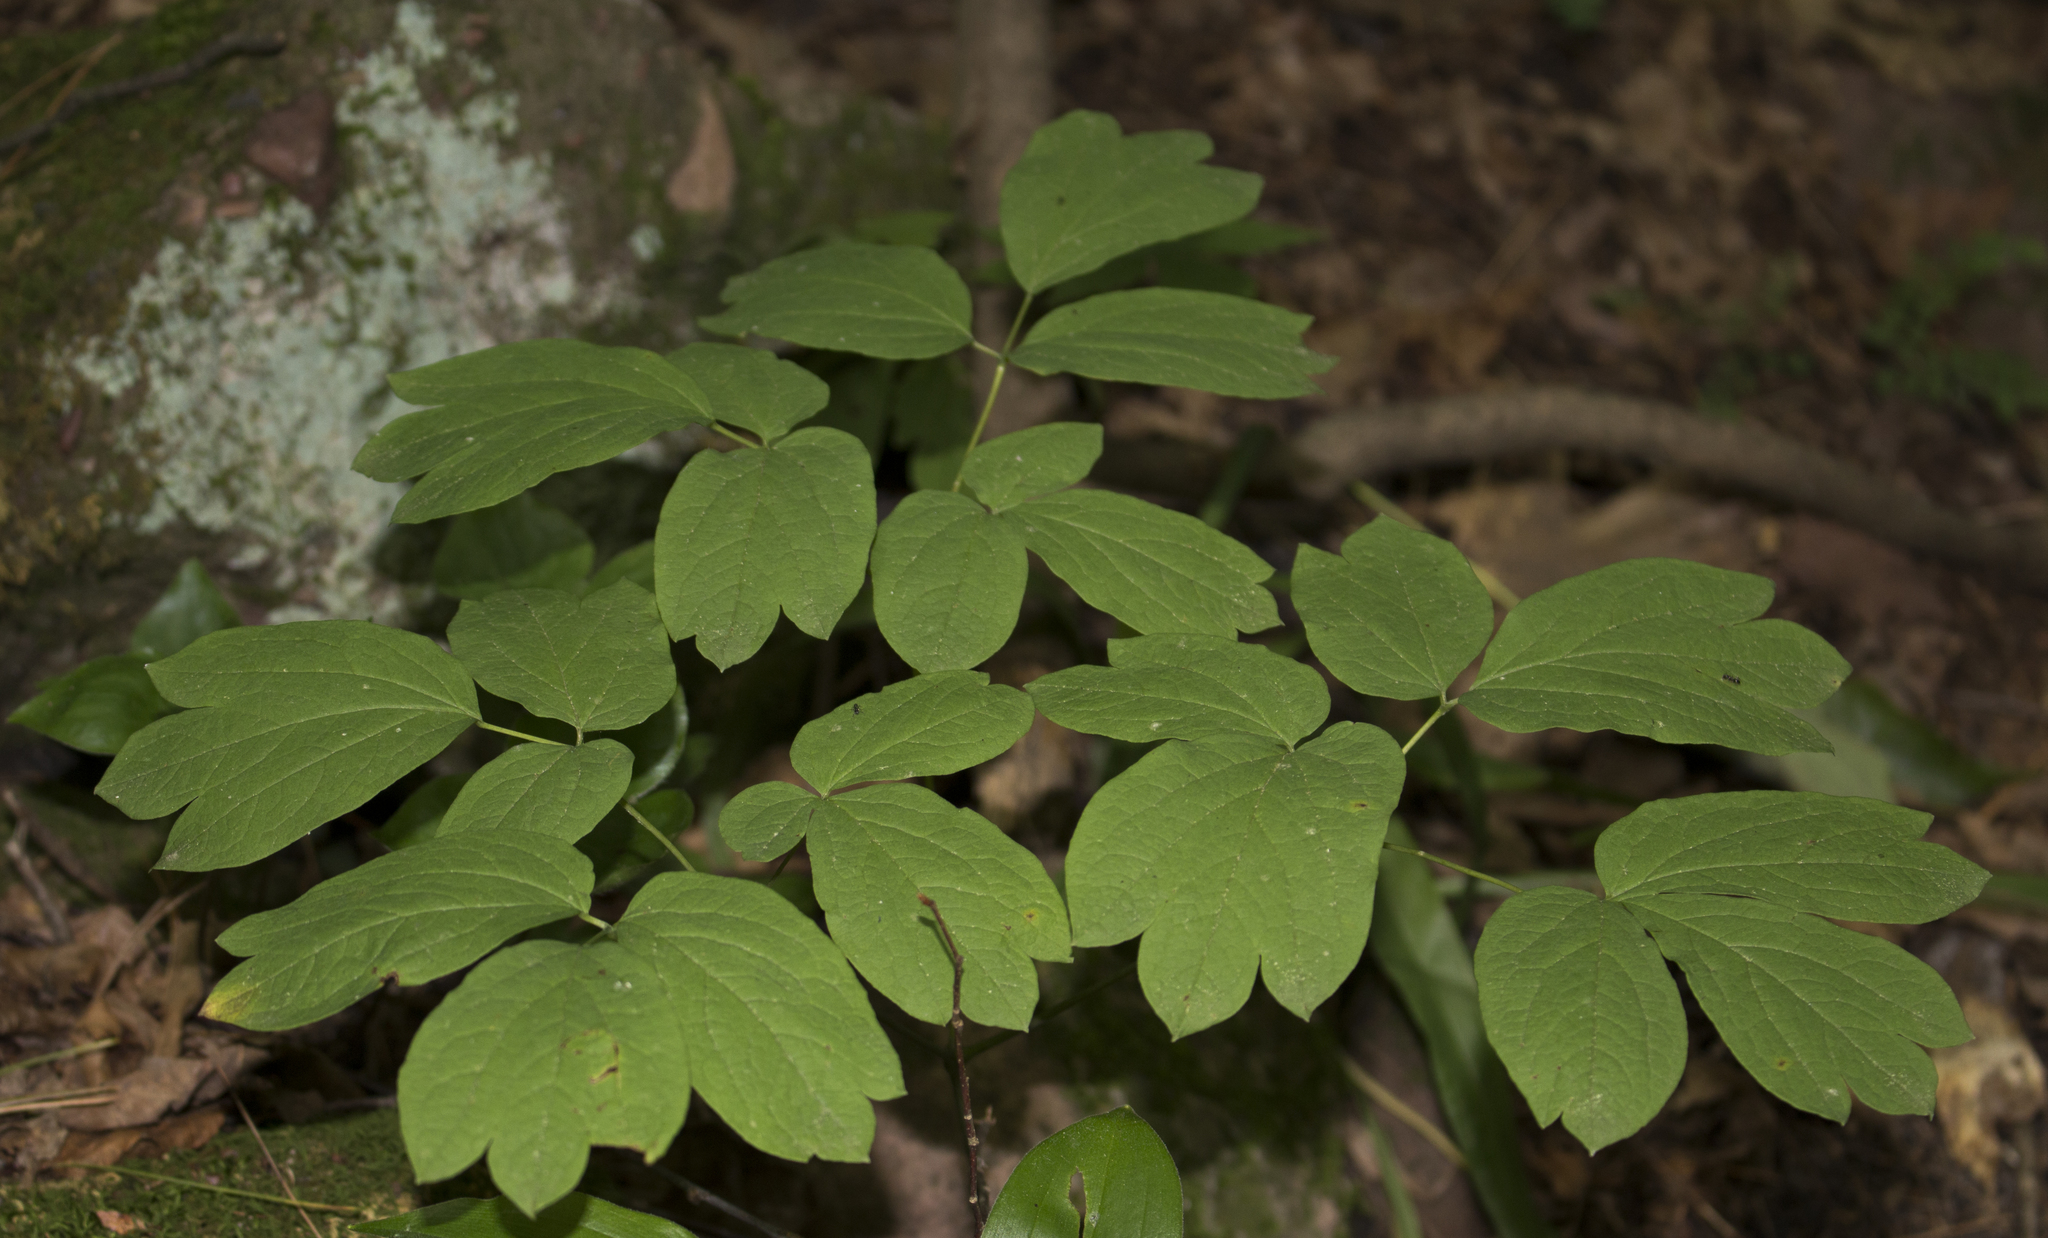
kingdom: Plantae
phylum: Tracheophyta
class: Magnoliopsida
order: Ranunculales
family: Berberidaceae
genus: Caulophyllum
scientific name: Caulophyllum thalictroides
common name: Blue cohosh
